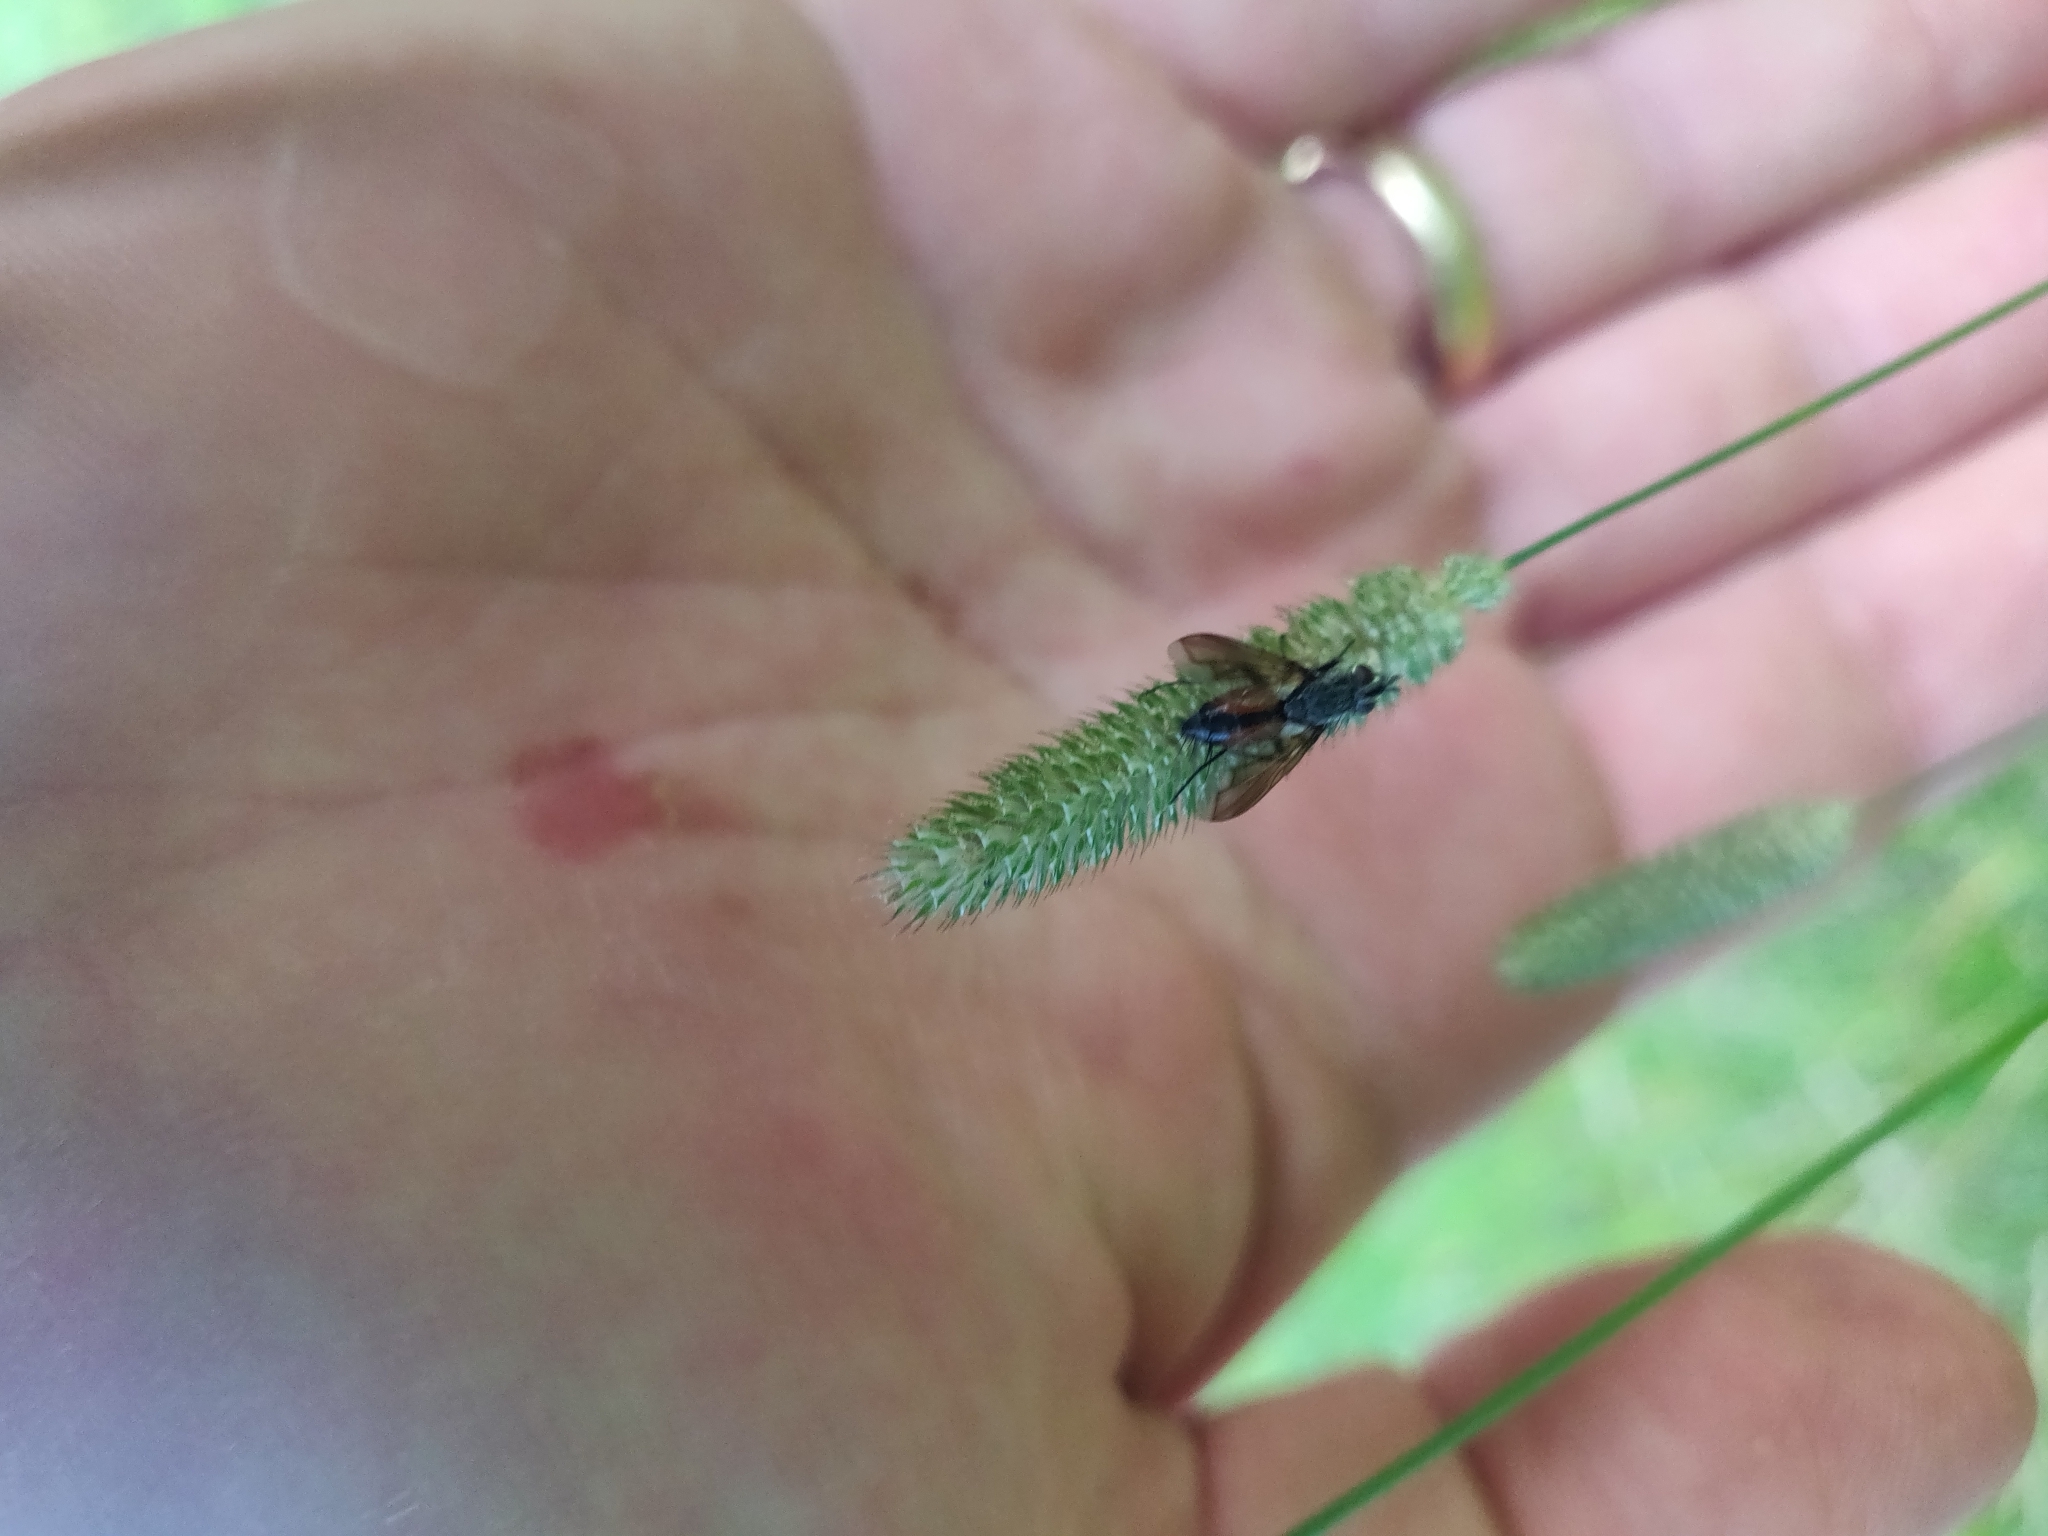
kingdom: Animalia
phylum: Arthropoda
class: Insecta
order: Diptera
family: Tachinidae
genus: Eriothrix
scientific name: Eriothrix rufomaculatus
